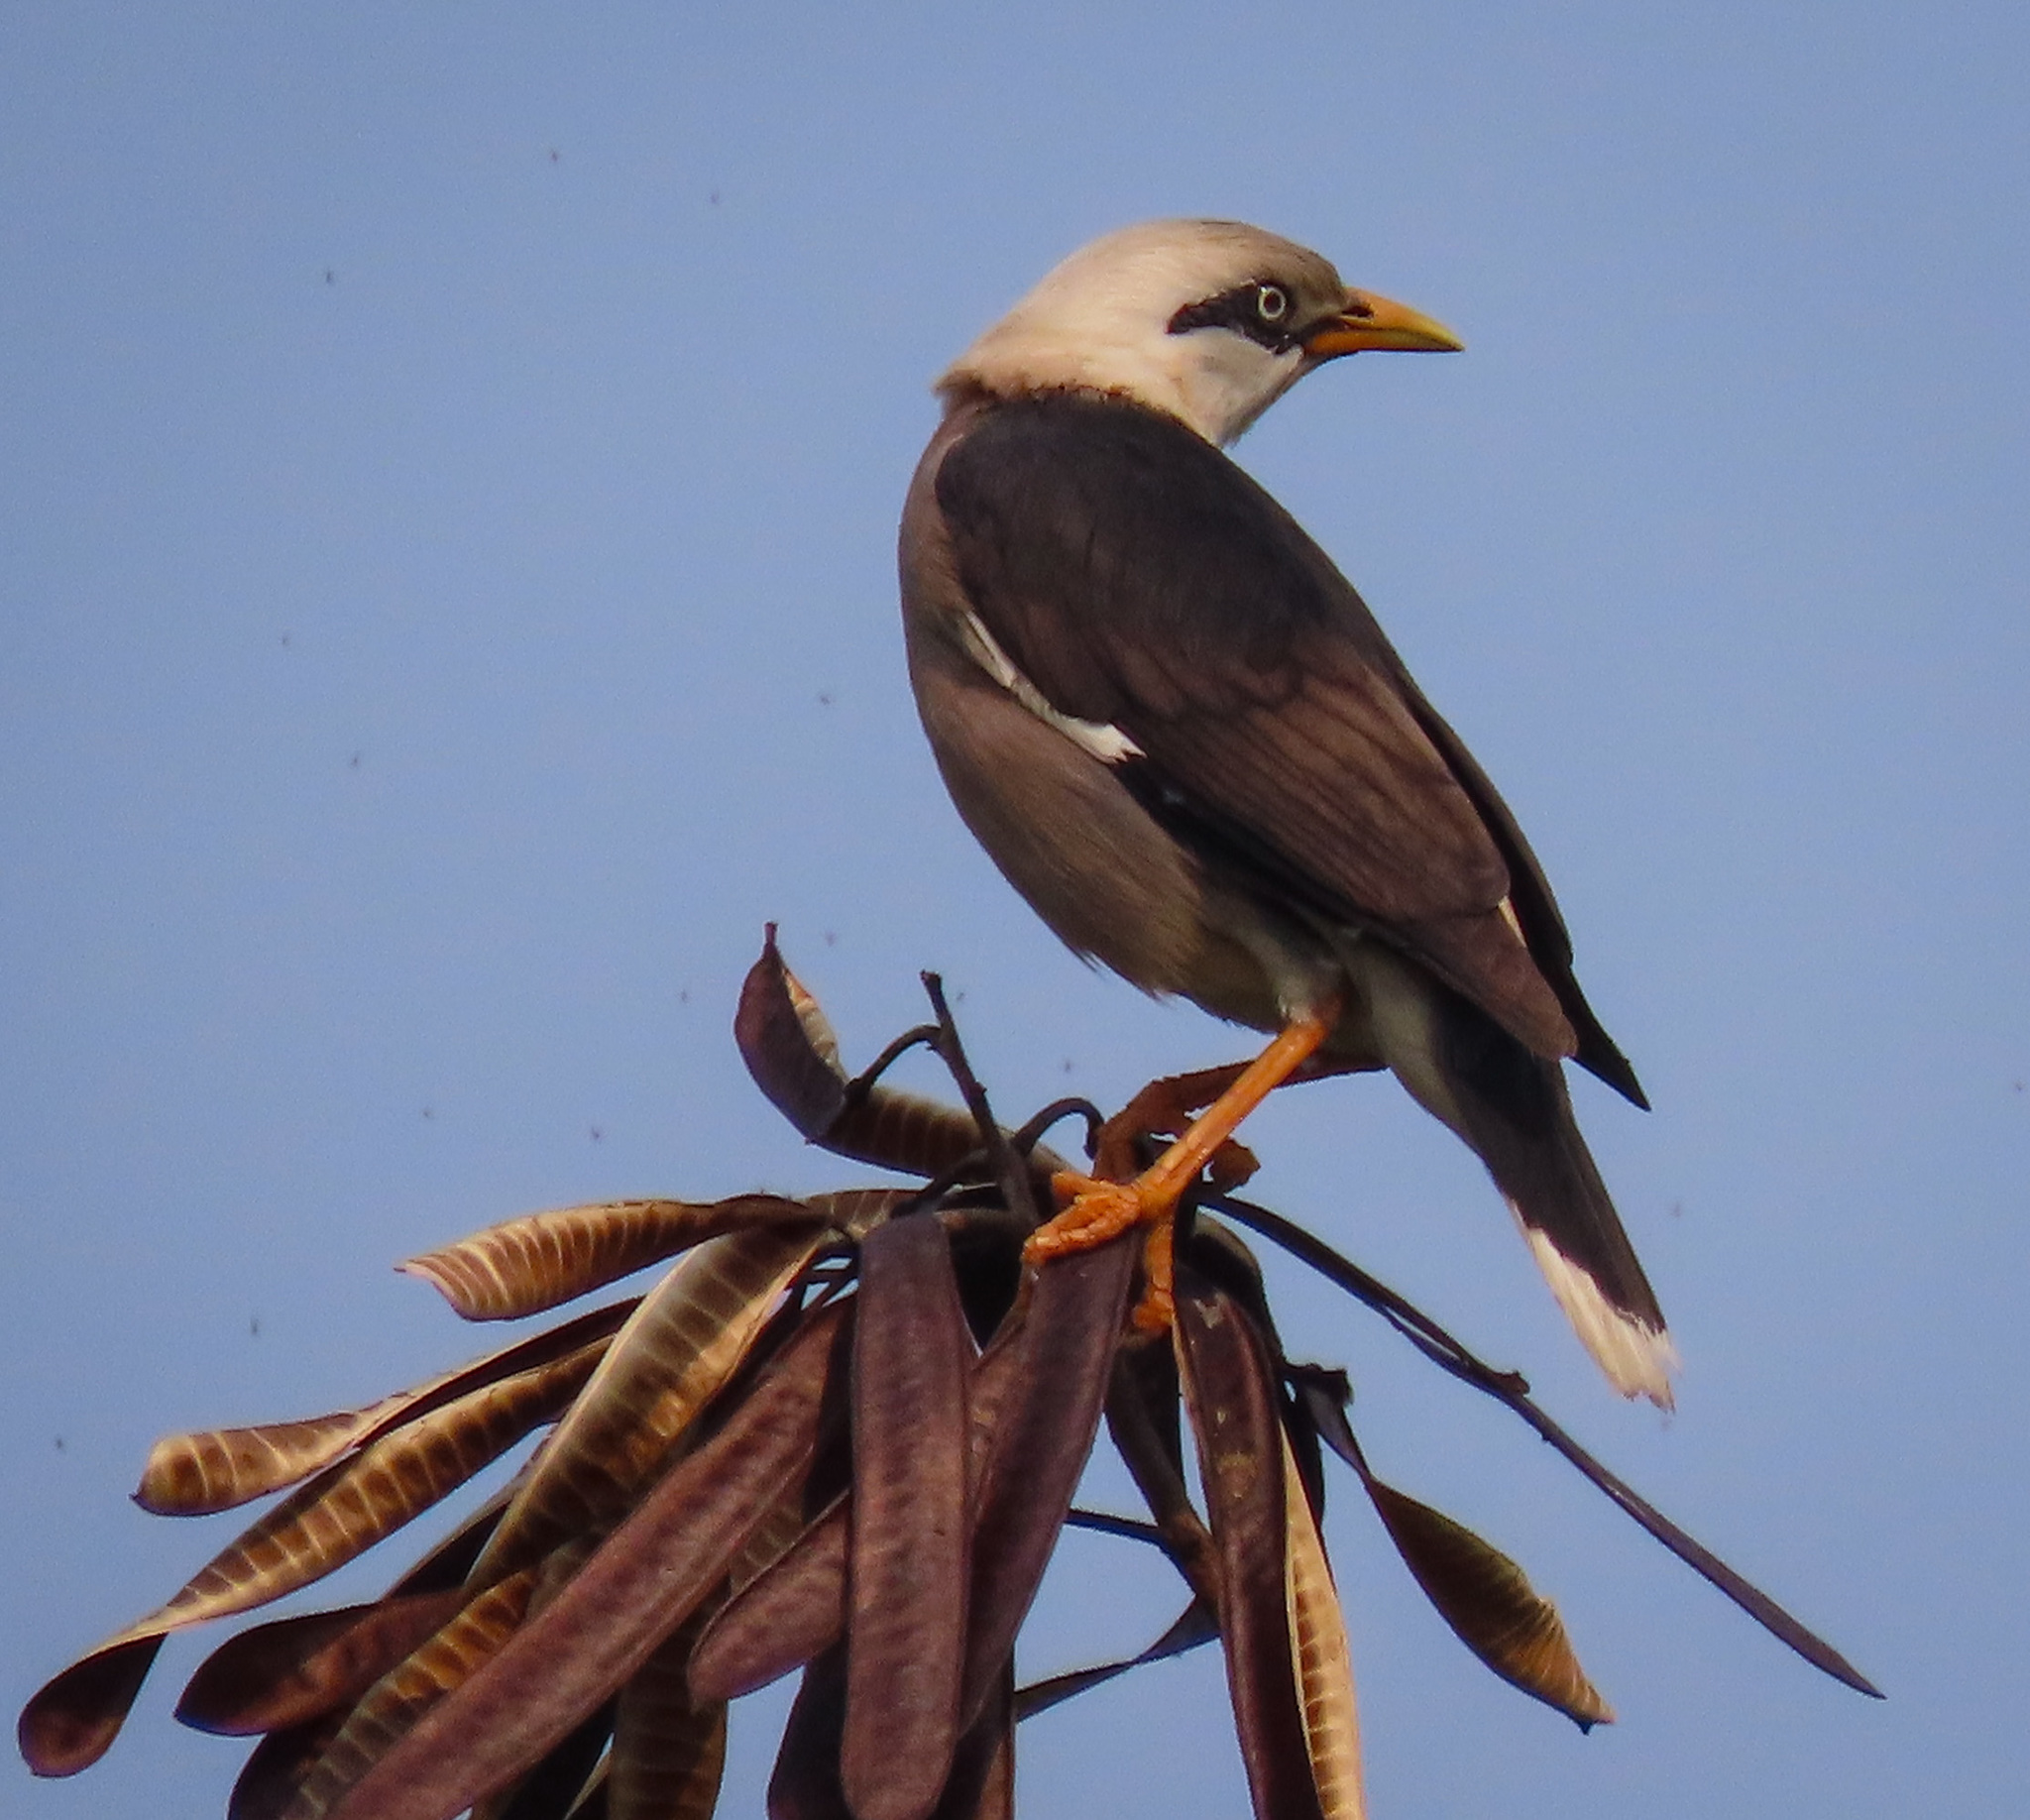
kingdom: Animalia
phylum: Chordata
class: Aves
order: Passeriformes
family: Sturnidae
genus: Acridotheres
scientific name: Acridotheres leucocephalus
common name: Vinous-breasted myna
